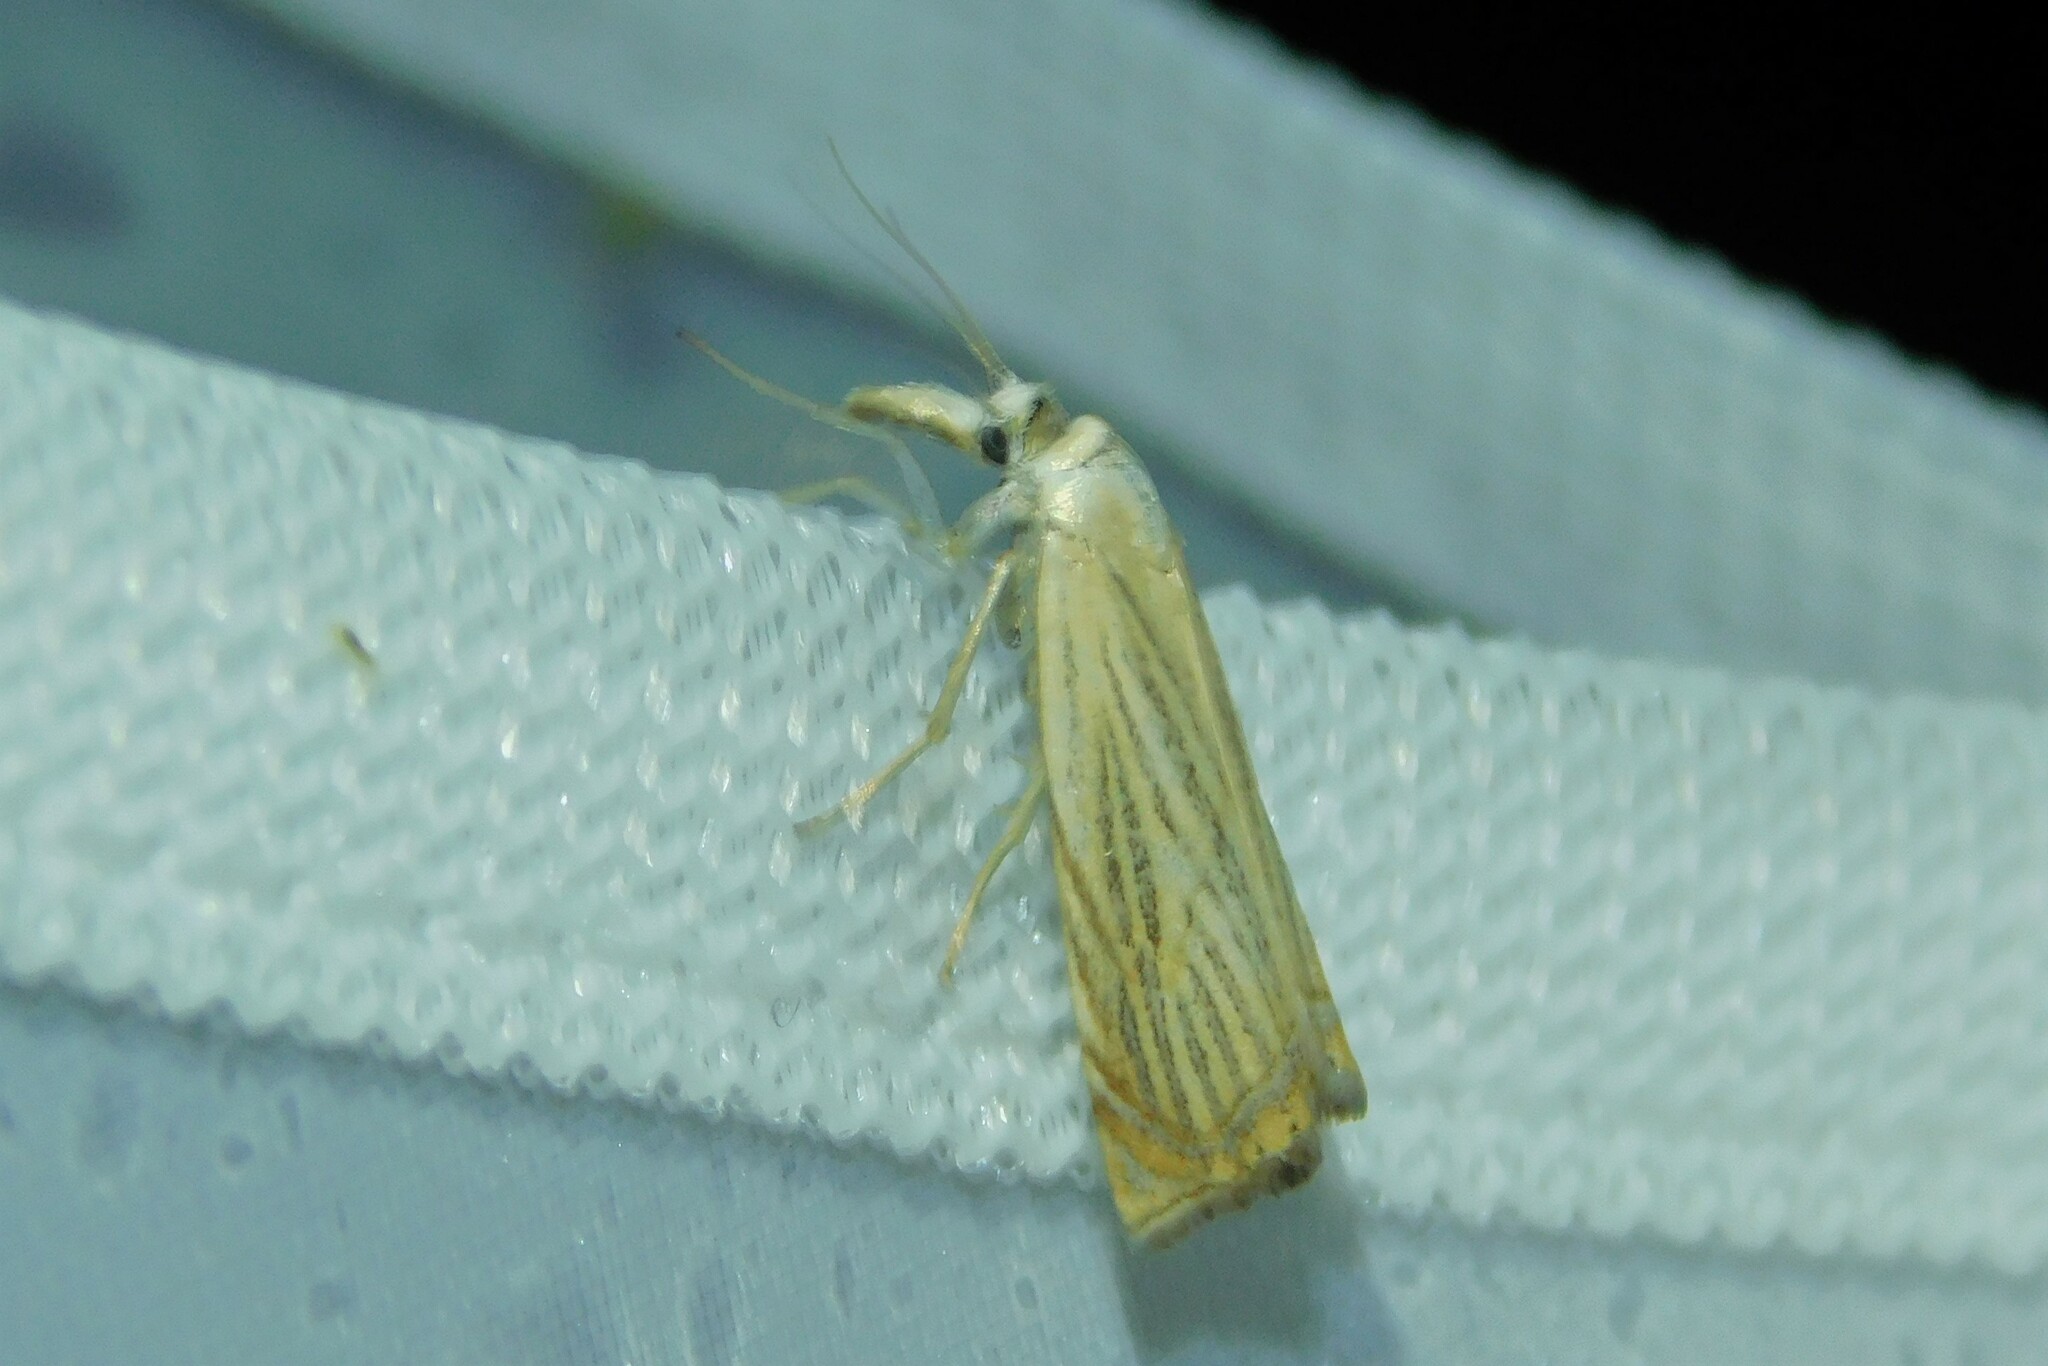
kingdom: Animalia
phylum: Arthropoda
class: Insecta
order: Lepidoptera
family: Crambidae
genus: Chrysoteuchia
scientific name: Chrysoteuchia culmella
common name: Garden grass-veneer
